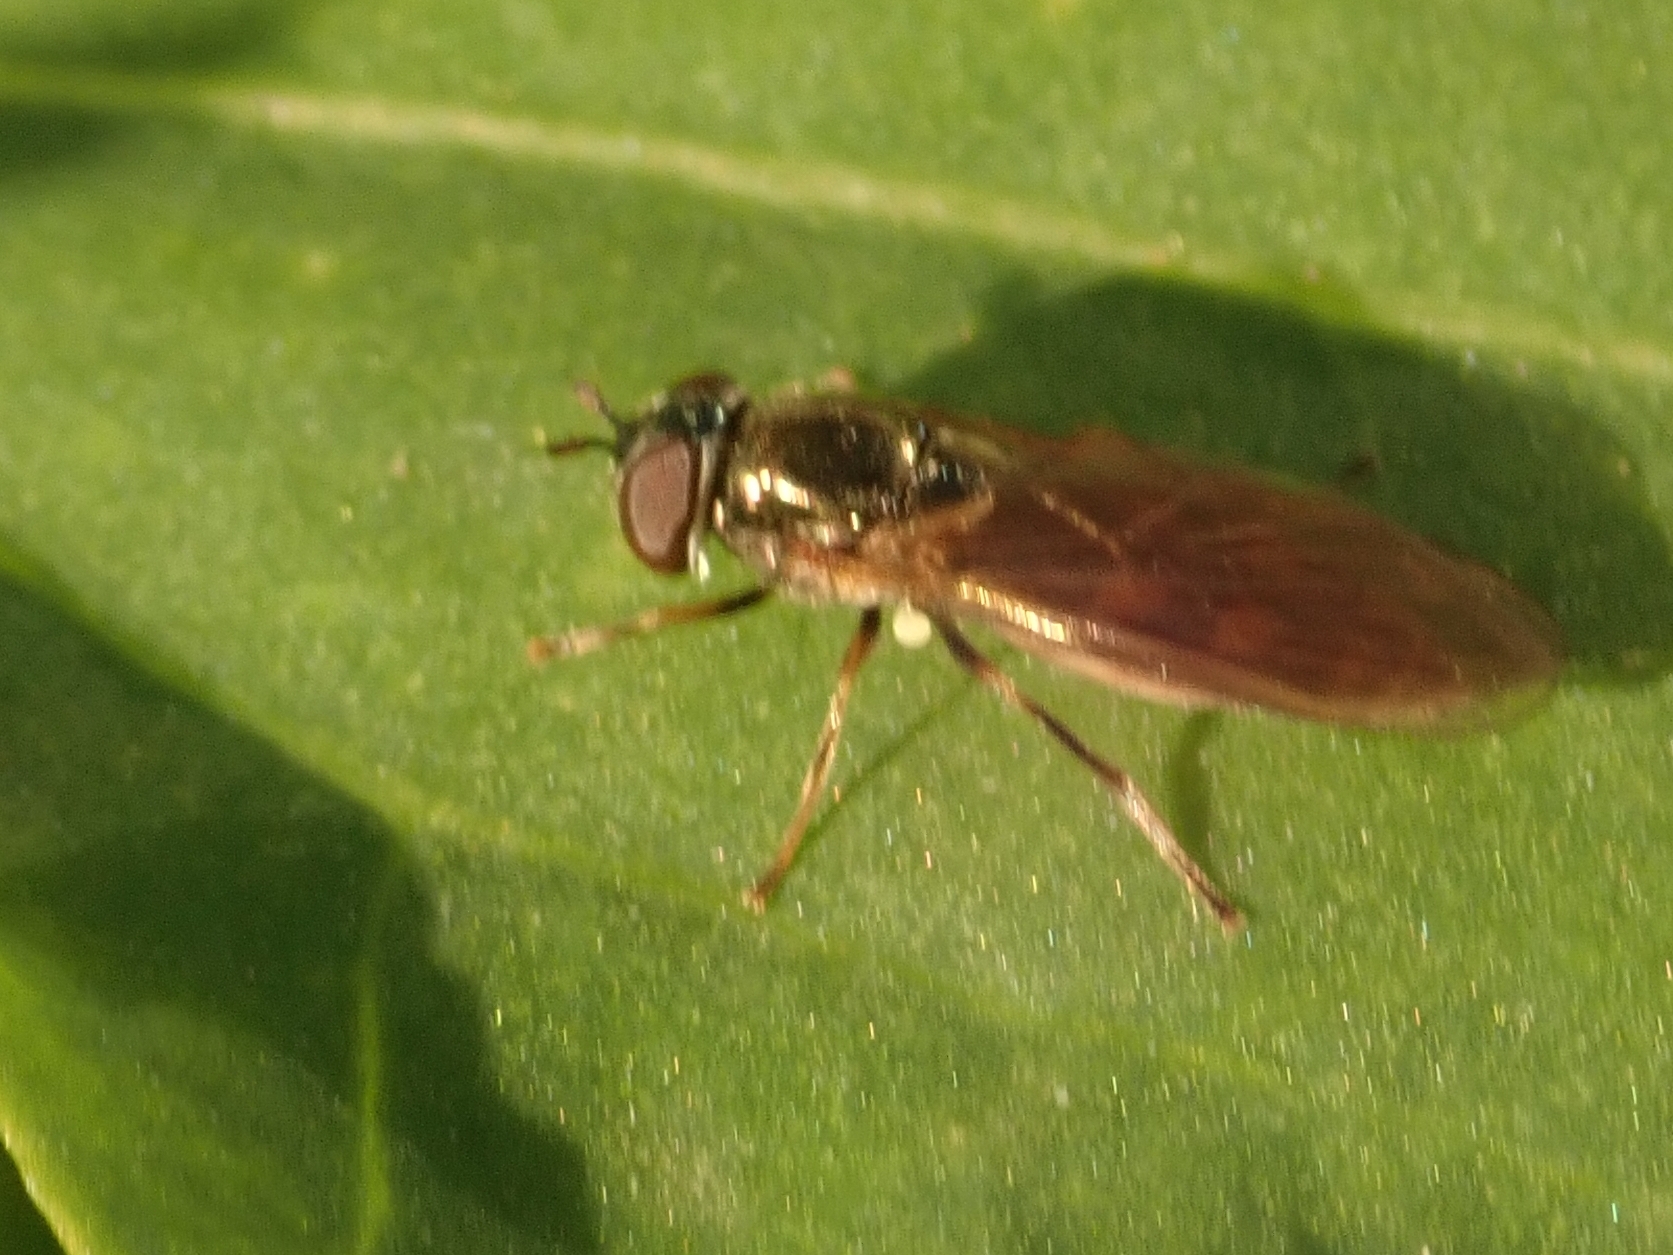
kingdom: Animalia
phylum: Arthropoda
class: Insecta
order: Diptera
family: Syrphidae
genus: Melanostoma
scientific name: Melanostoma scalare
